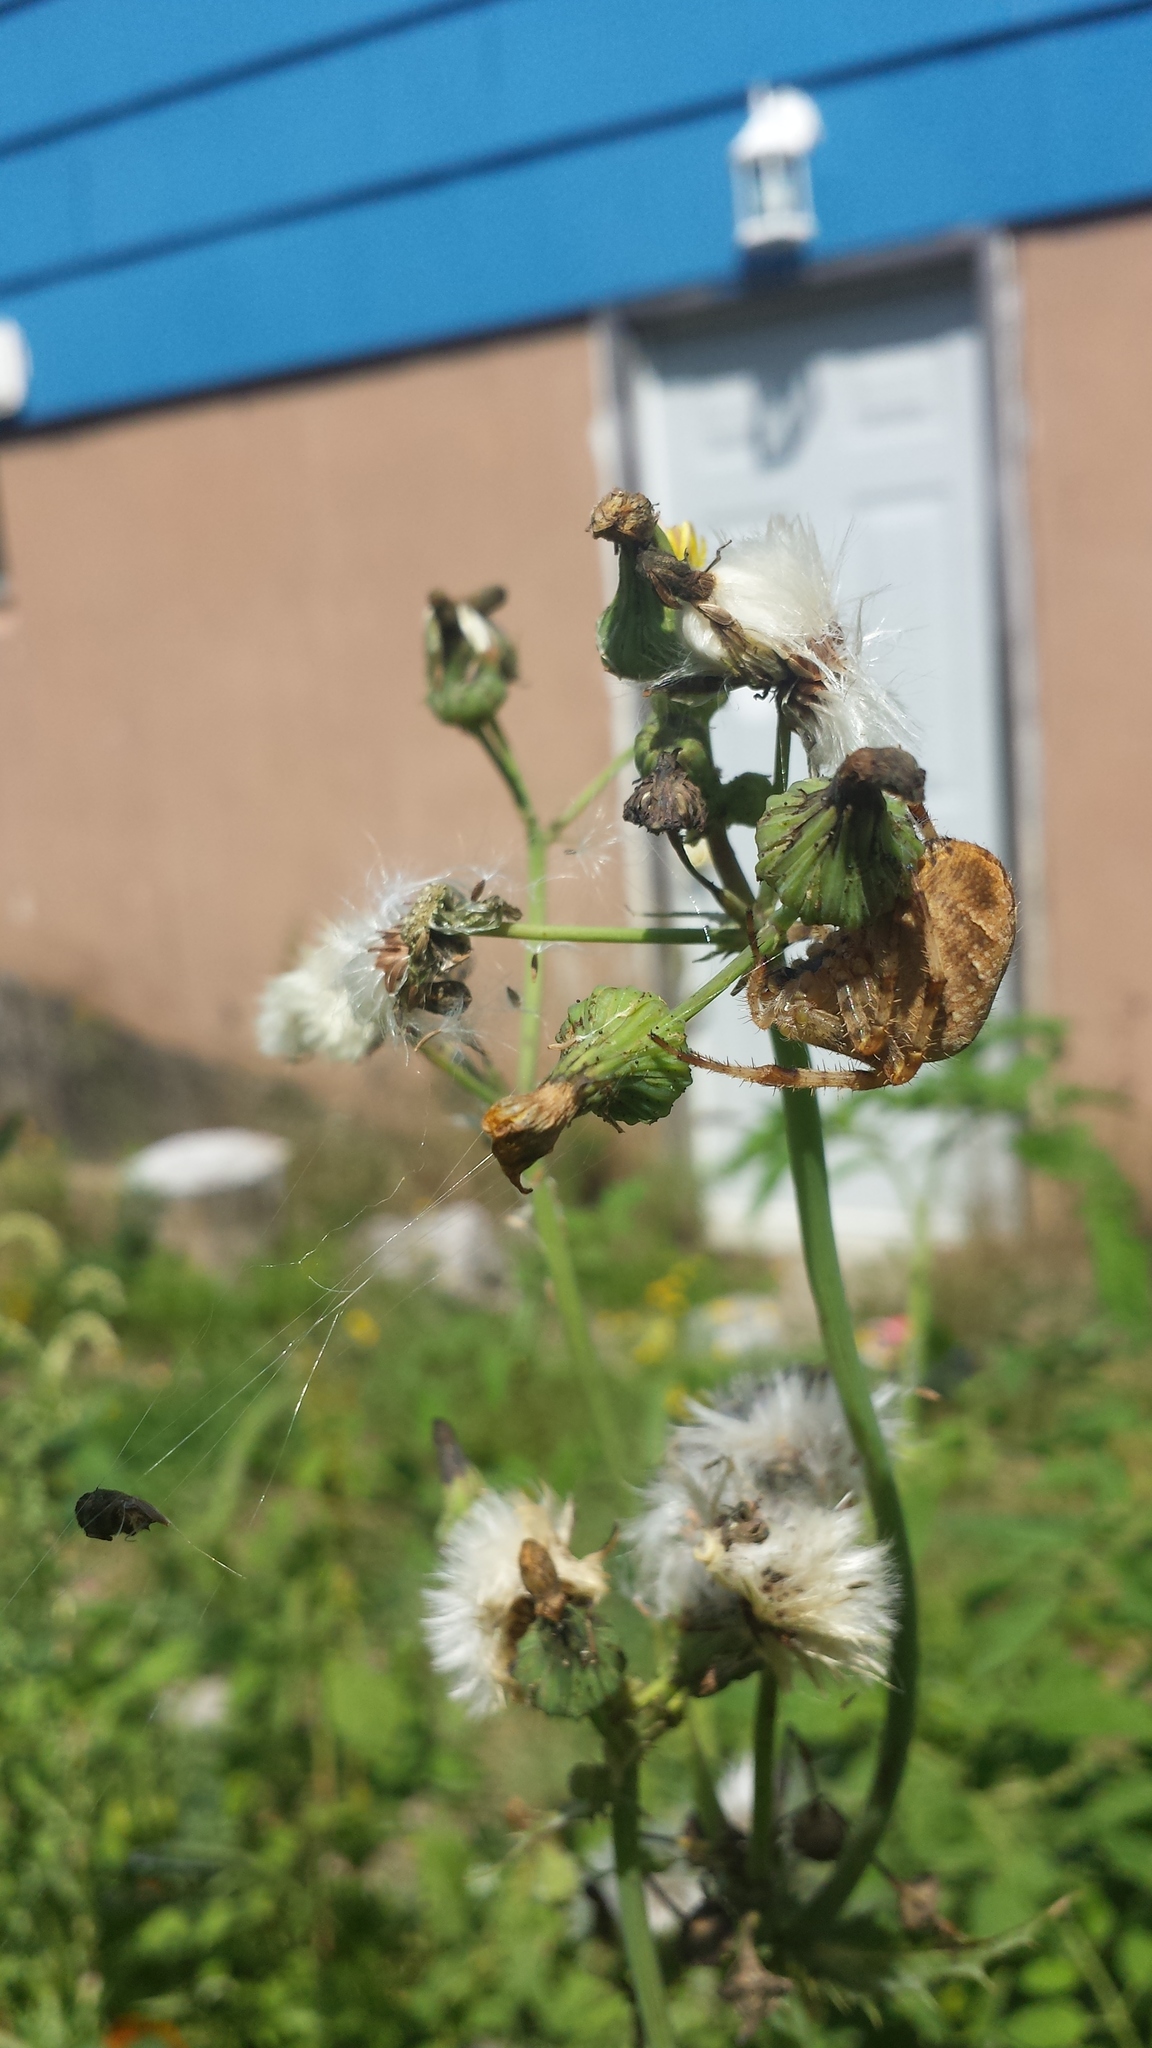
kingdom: Animalia
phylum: Arthropoda
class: Arachnida
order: Araneae
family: Araneidae
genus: Araneus
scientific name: Araneus diadematus
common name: Cross orbweaver
